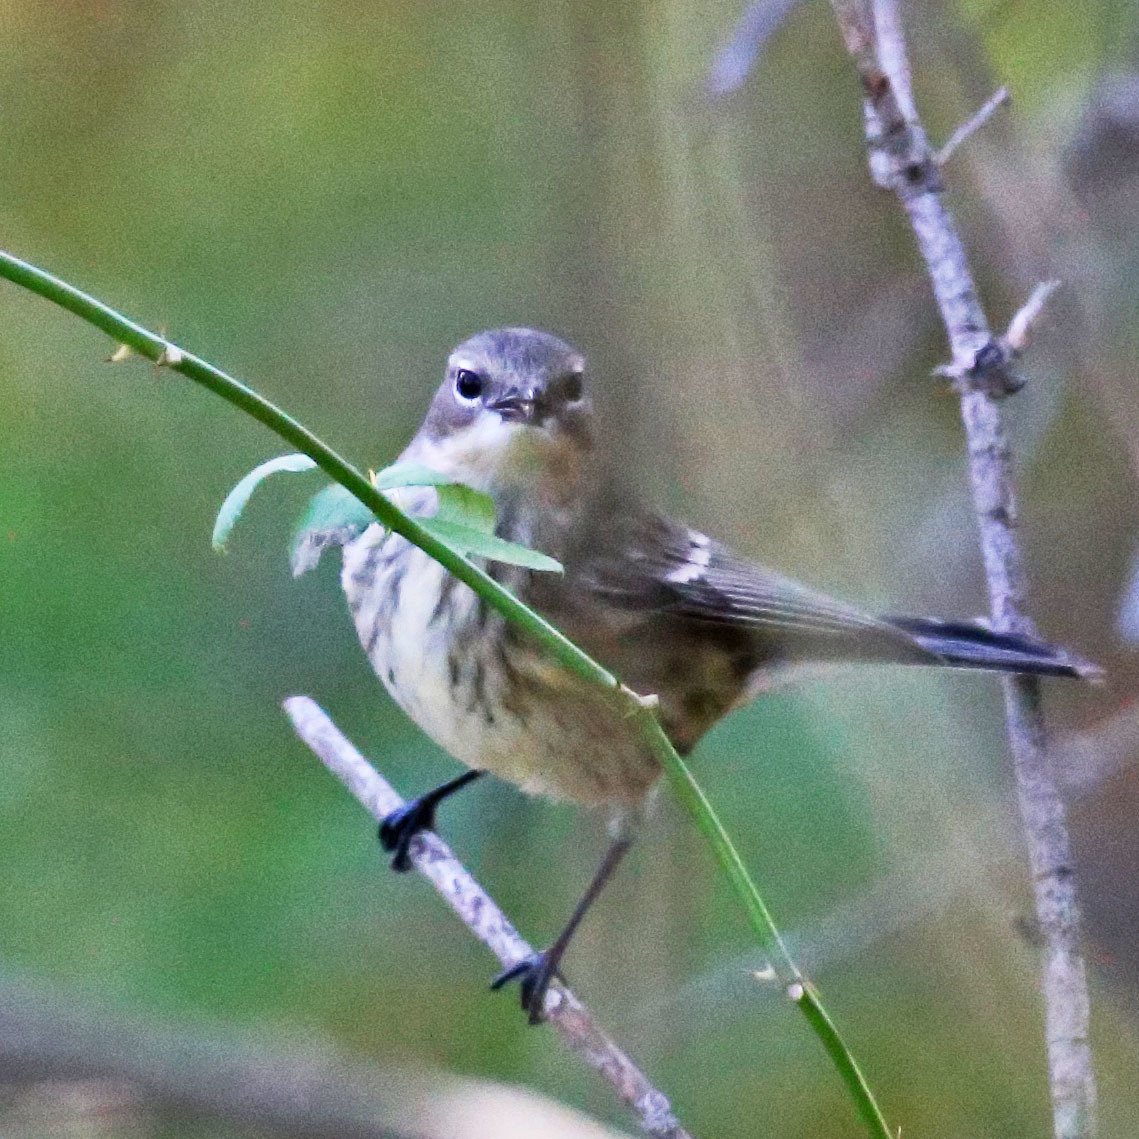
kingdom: Animalia
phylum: Chordata
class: Aves
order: Passeriformes
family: Parulidae
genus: Setophaga
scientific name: Setophaga coronata
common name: Myrtle warbler
